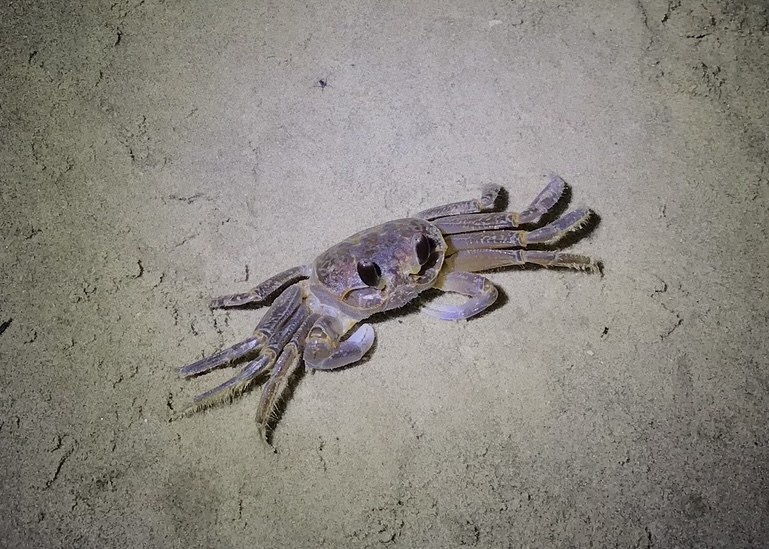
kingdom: Animalia
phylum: Arthropoda
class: Malacostraca
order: Decapoda
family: Ocypodidae
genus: Ocypode
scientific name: Ocypode quadrata
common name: Ghost crab
